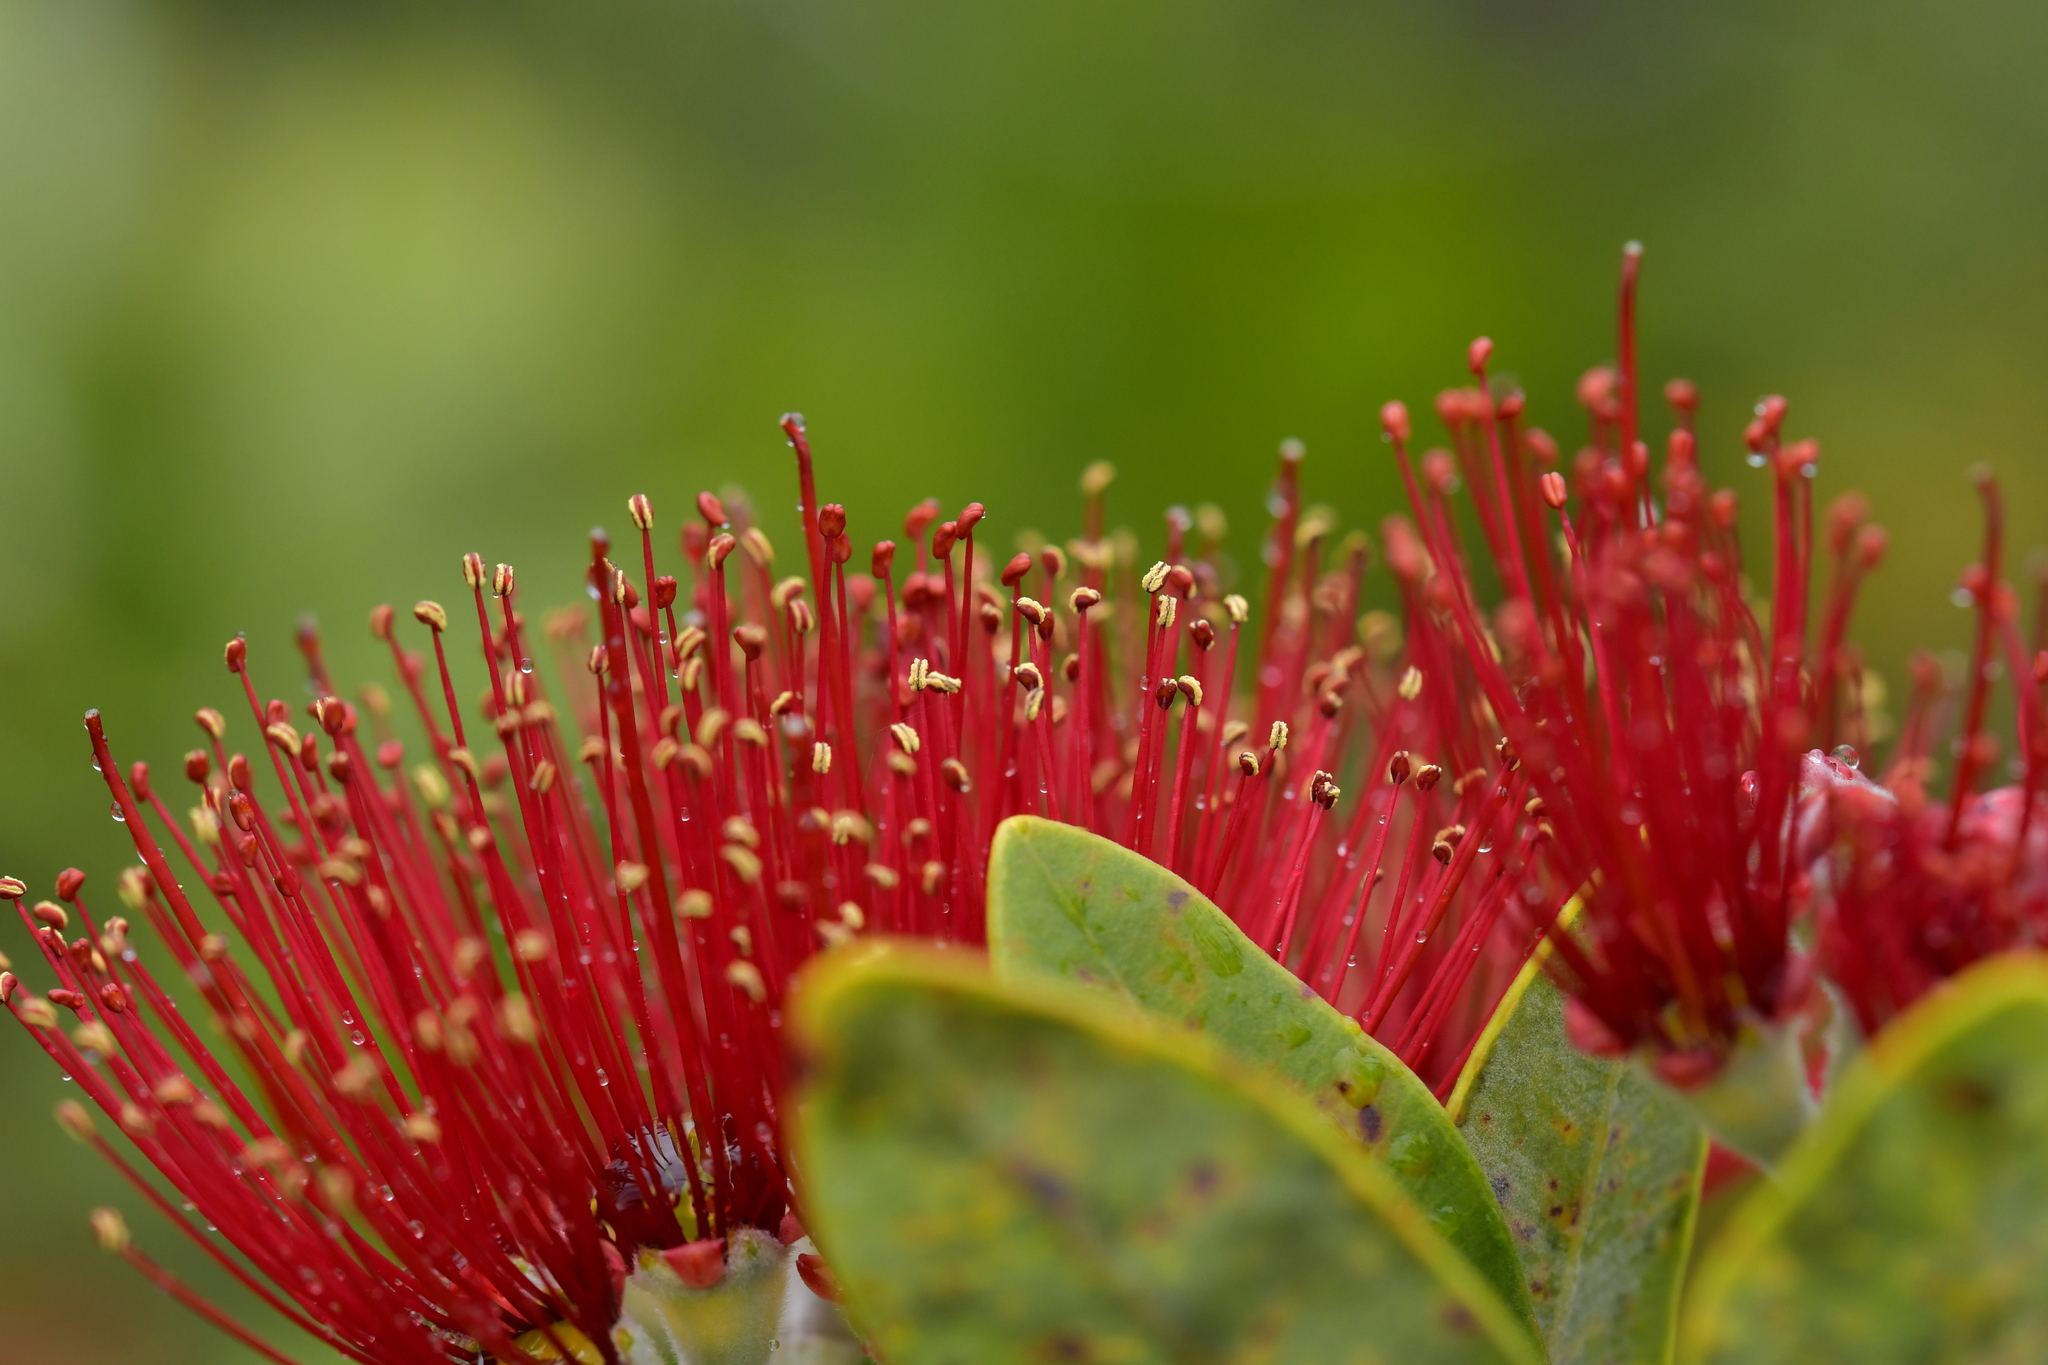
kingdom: Plantae
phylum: Tracheophyta
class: Magnoliopsida
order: Myrtales
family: Myrtaceae
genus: Metrosideros
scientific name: Metrosideros excelsa
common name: New zealand christmastree
